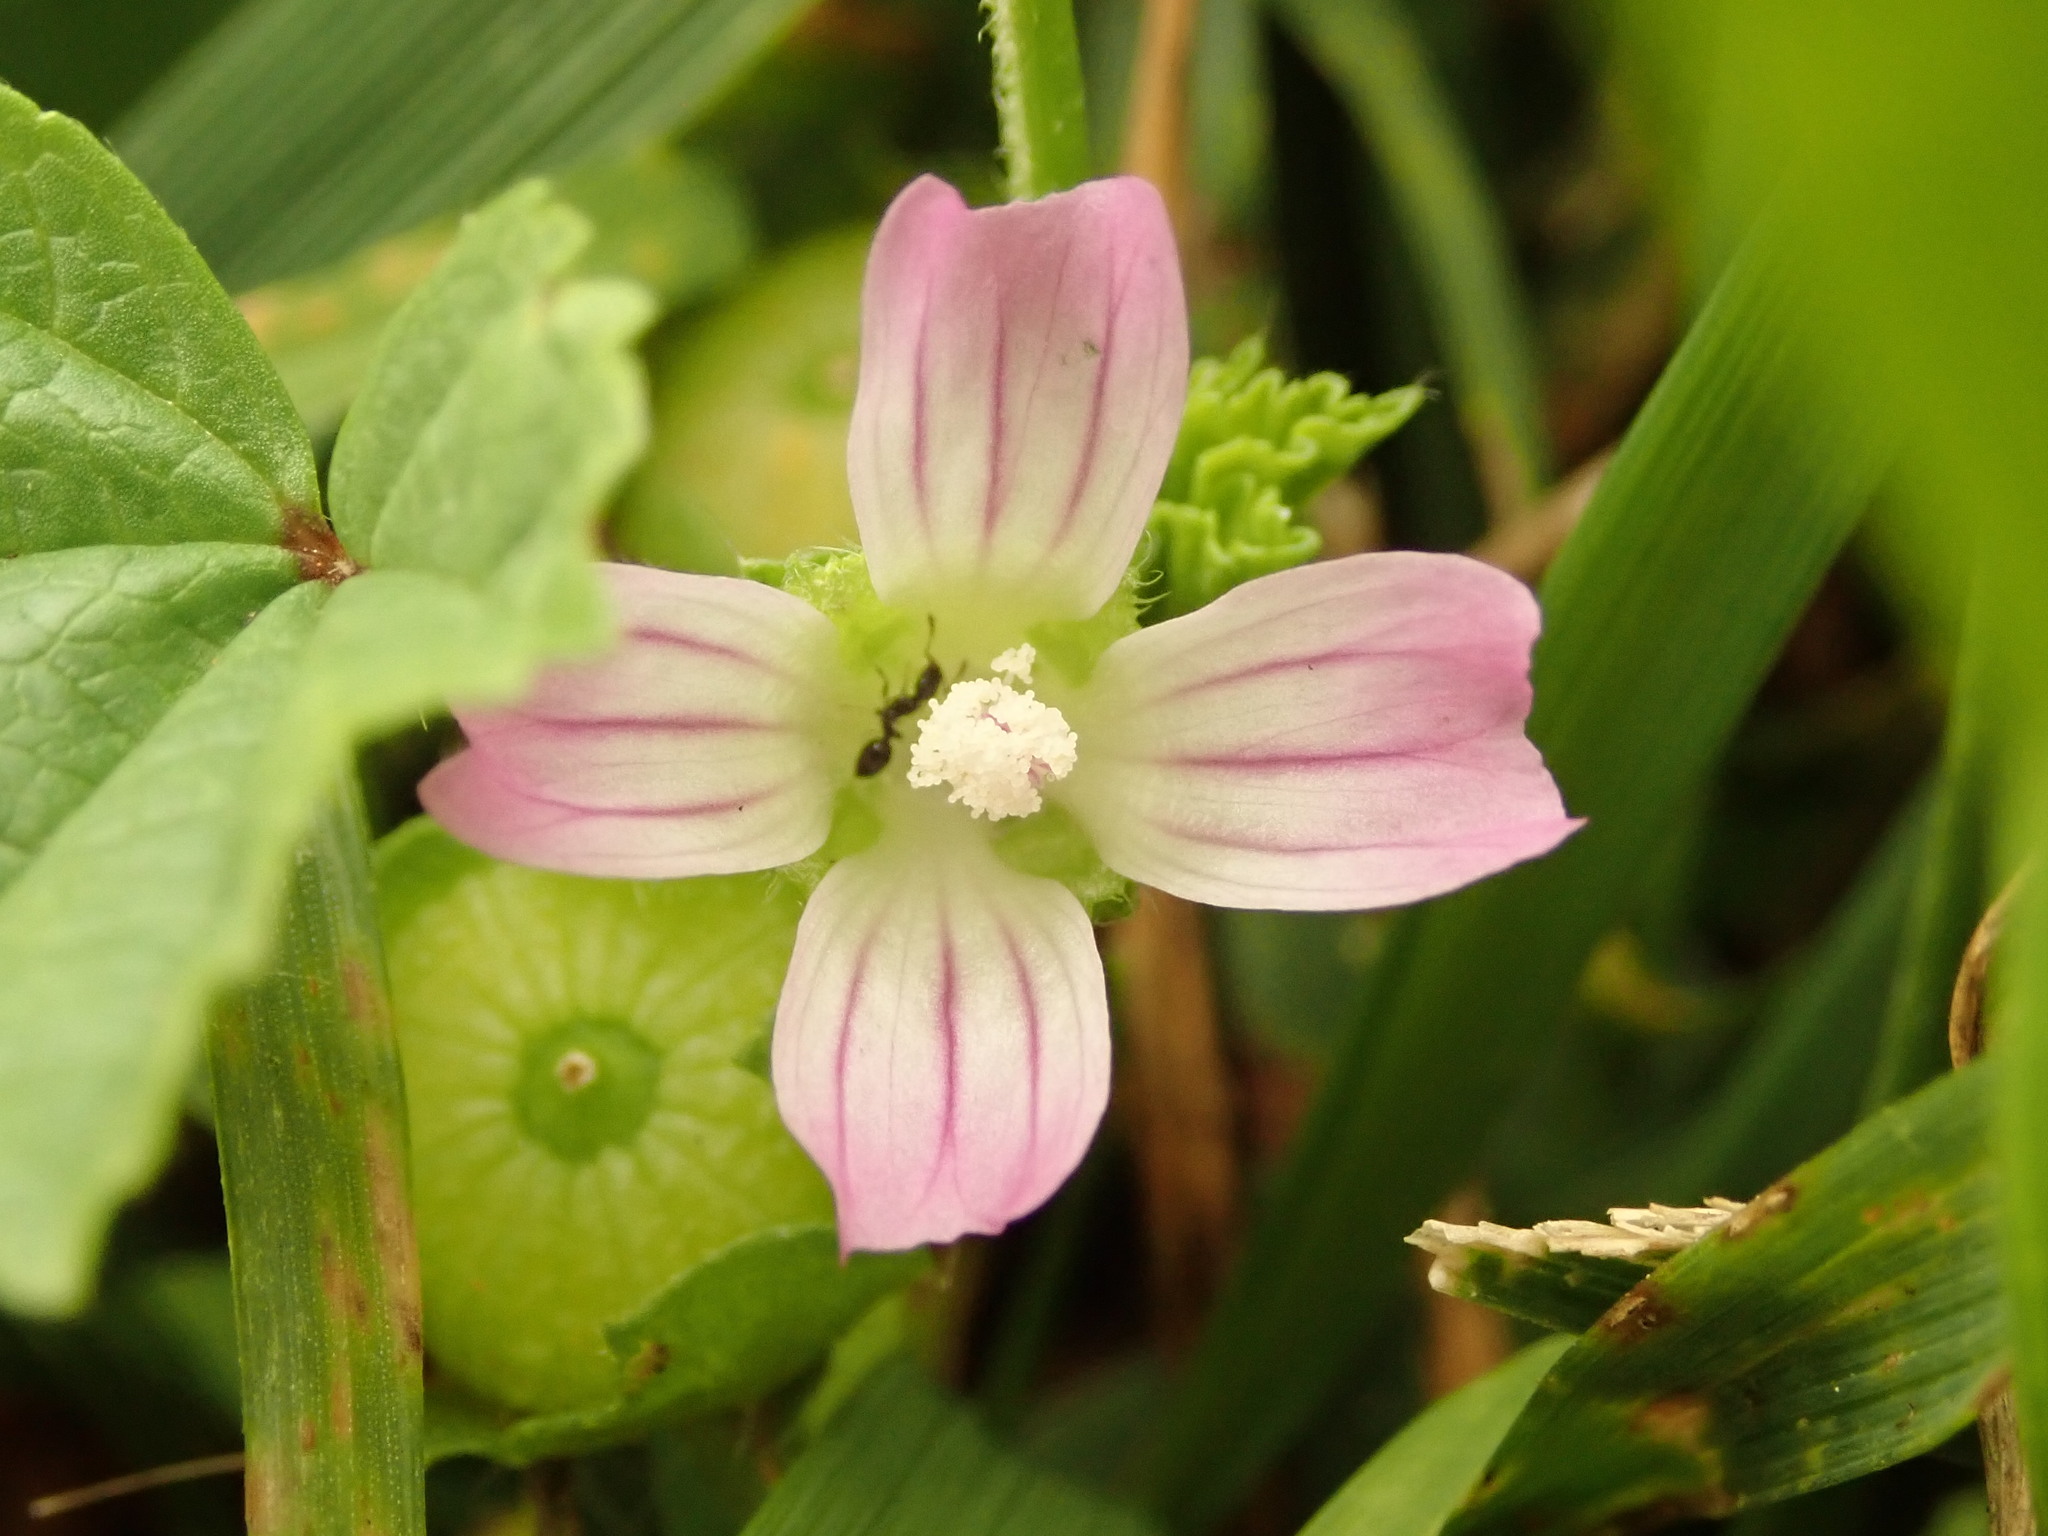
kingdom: Plantae
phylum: Tracheophyta
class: Magnoliopsida
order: Malvales
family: Malvaceae
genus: Malva
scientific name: Malva nicaeensis
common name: French mallow
